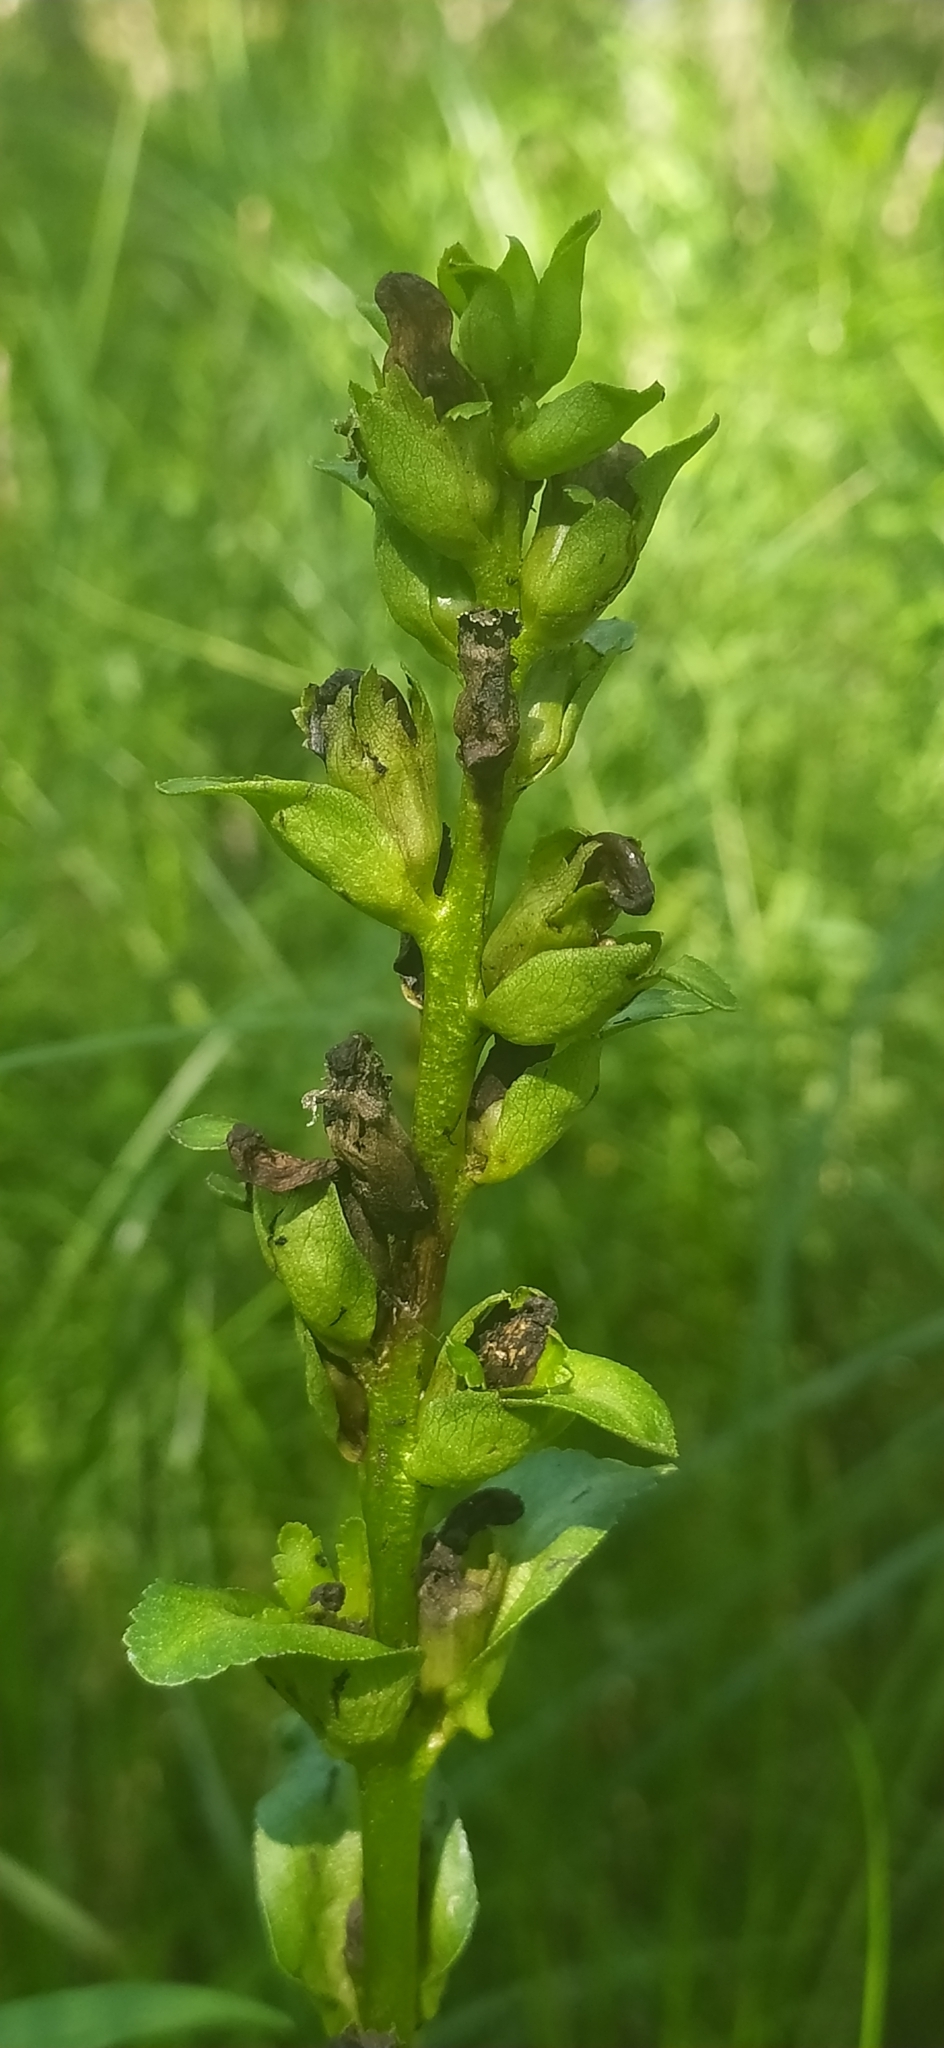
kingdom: Plantae
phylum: Tracheophyta
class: Magnoliopsida
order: Lamiales
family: Orobanchaceae
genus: Pedicularis
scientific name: Pedicularis sceptrum-carolinum
